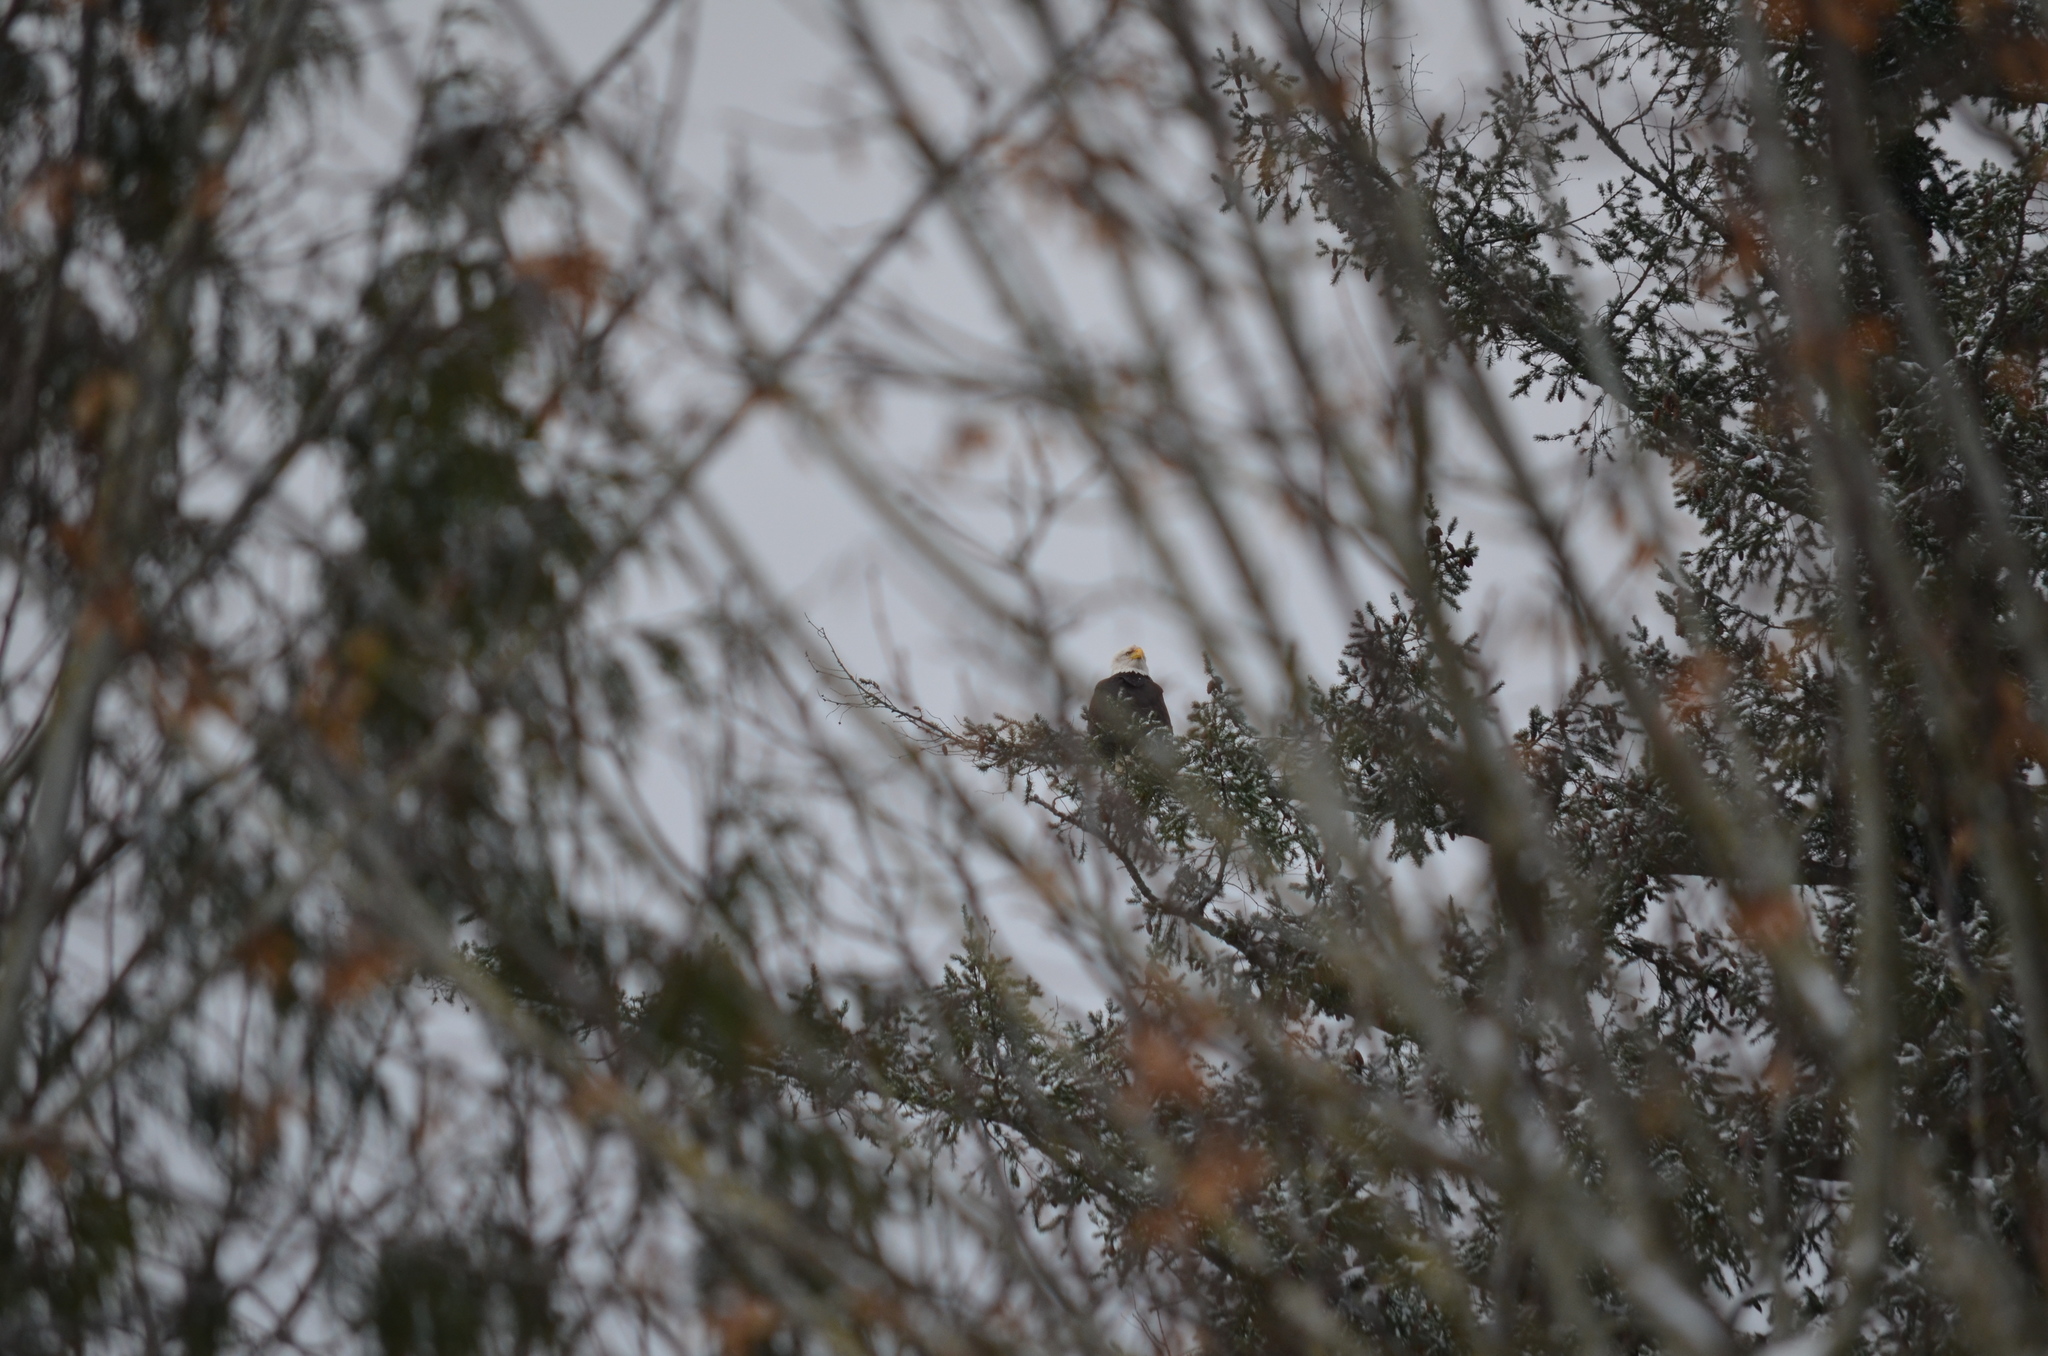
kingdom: Animalia
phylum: Chordata
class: Aves
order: Accipitriformes
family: Accipitridae
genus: Haliaeetus
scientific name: Haliaeetus leucocephalus
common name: Bald eagle
